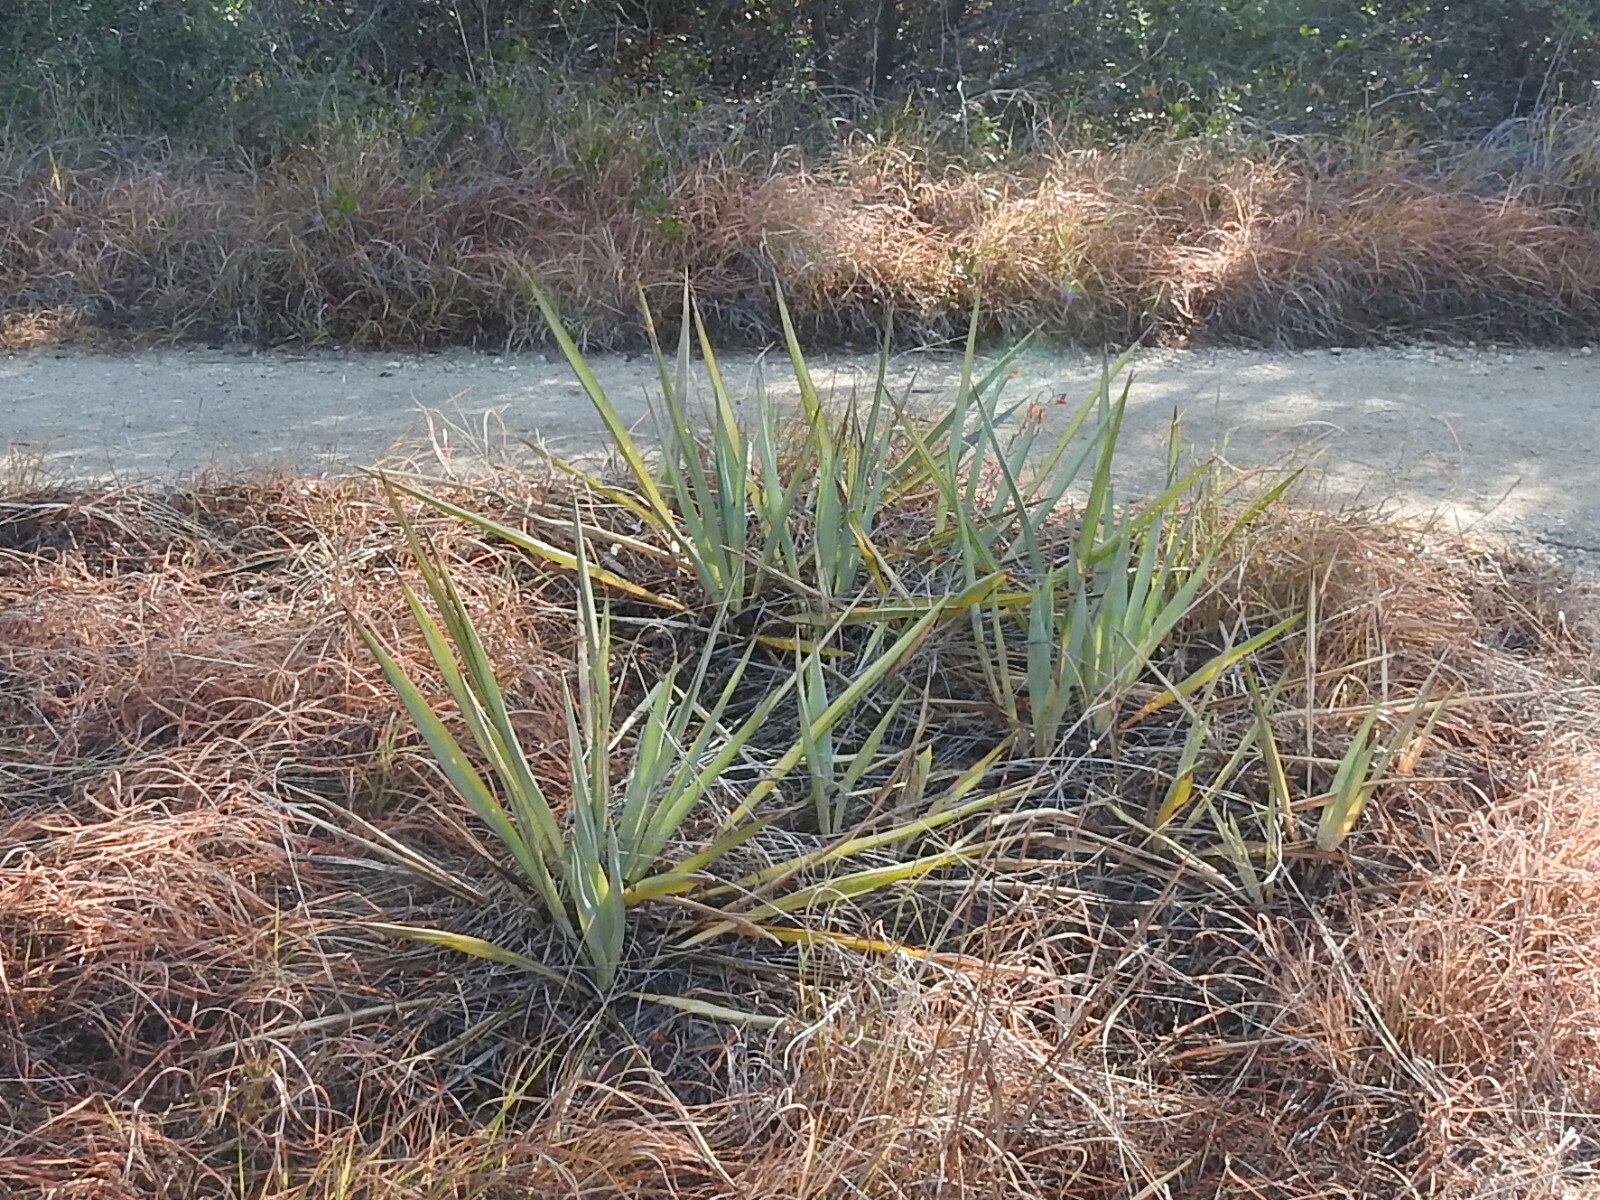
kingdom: Plantae
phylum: Tracheophyta
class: Liliopsida
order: Asparagales
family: Asparagaceae
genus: Yucca
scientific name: Yucca pallida
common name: Pale leaf yucca
